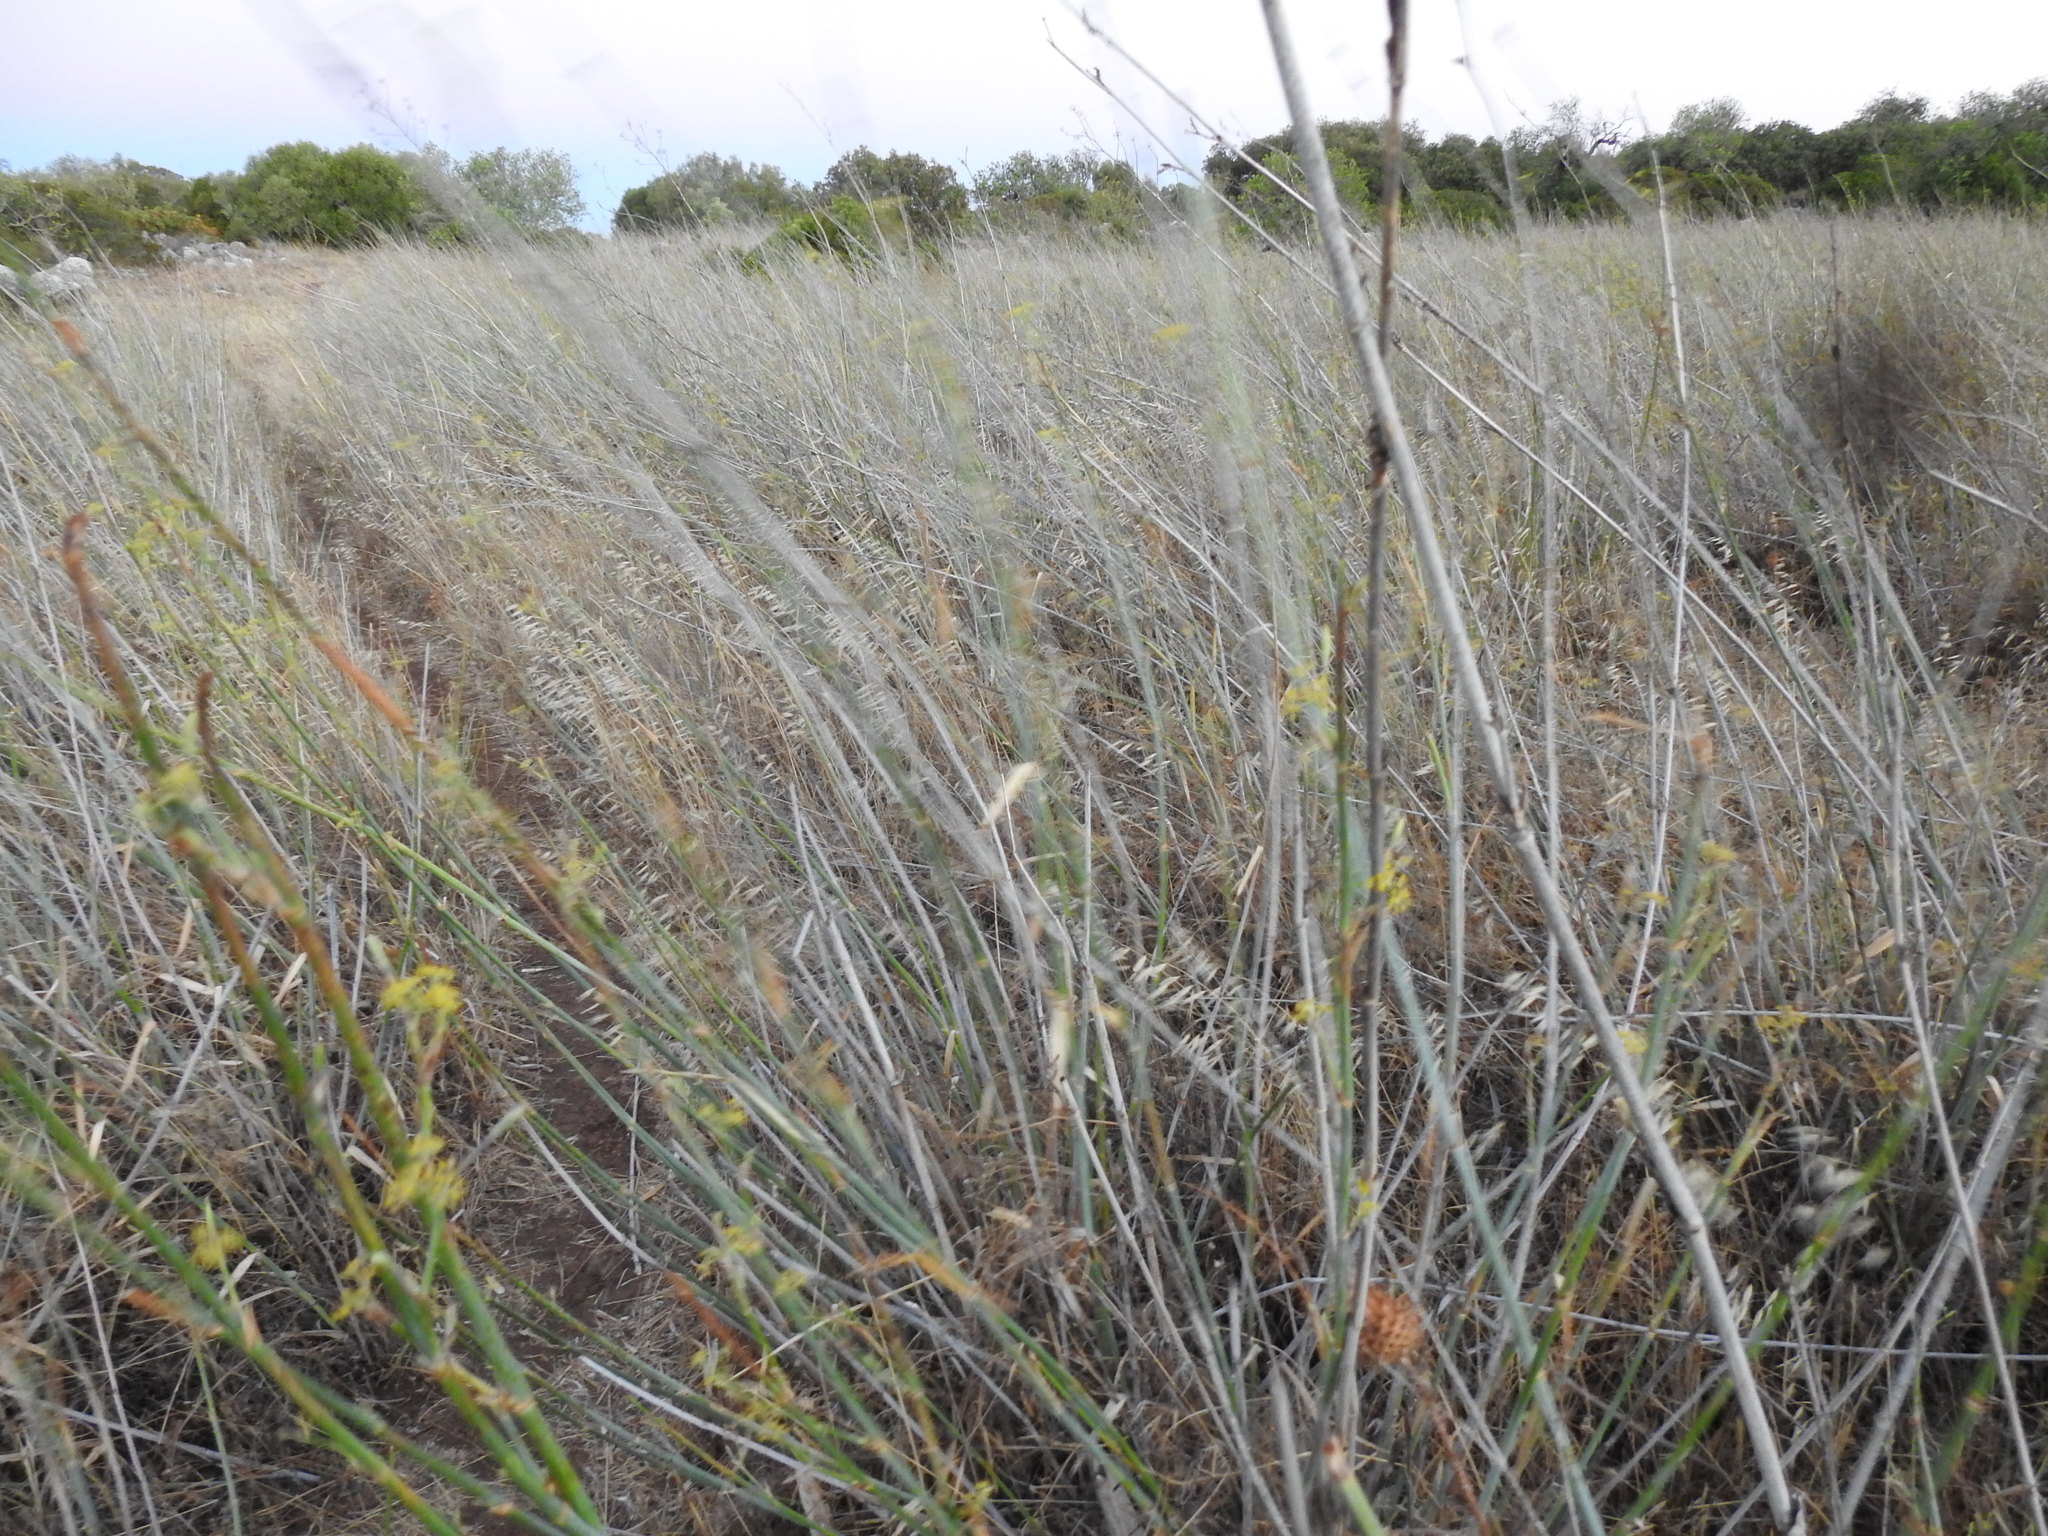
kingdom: Plantae
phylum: Tracheophyta
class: Magnoliopsida
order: Apiales
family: Apiaceae
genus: Foeniculum
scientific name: Foeniculum vulgare
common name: Fennel
